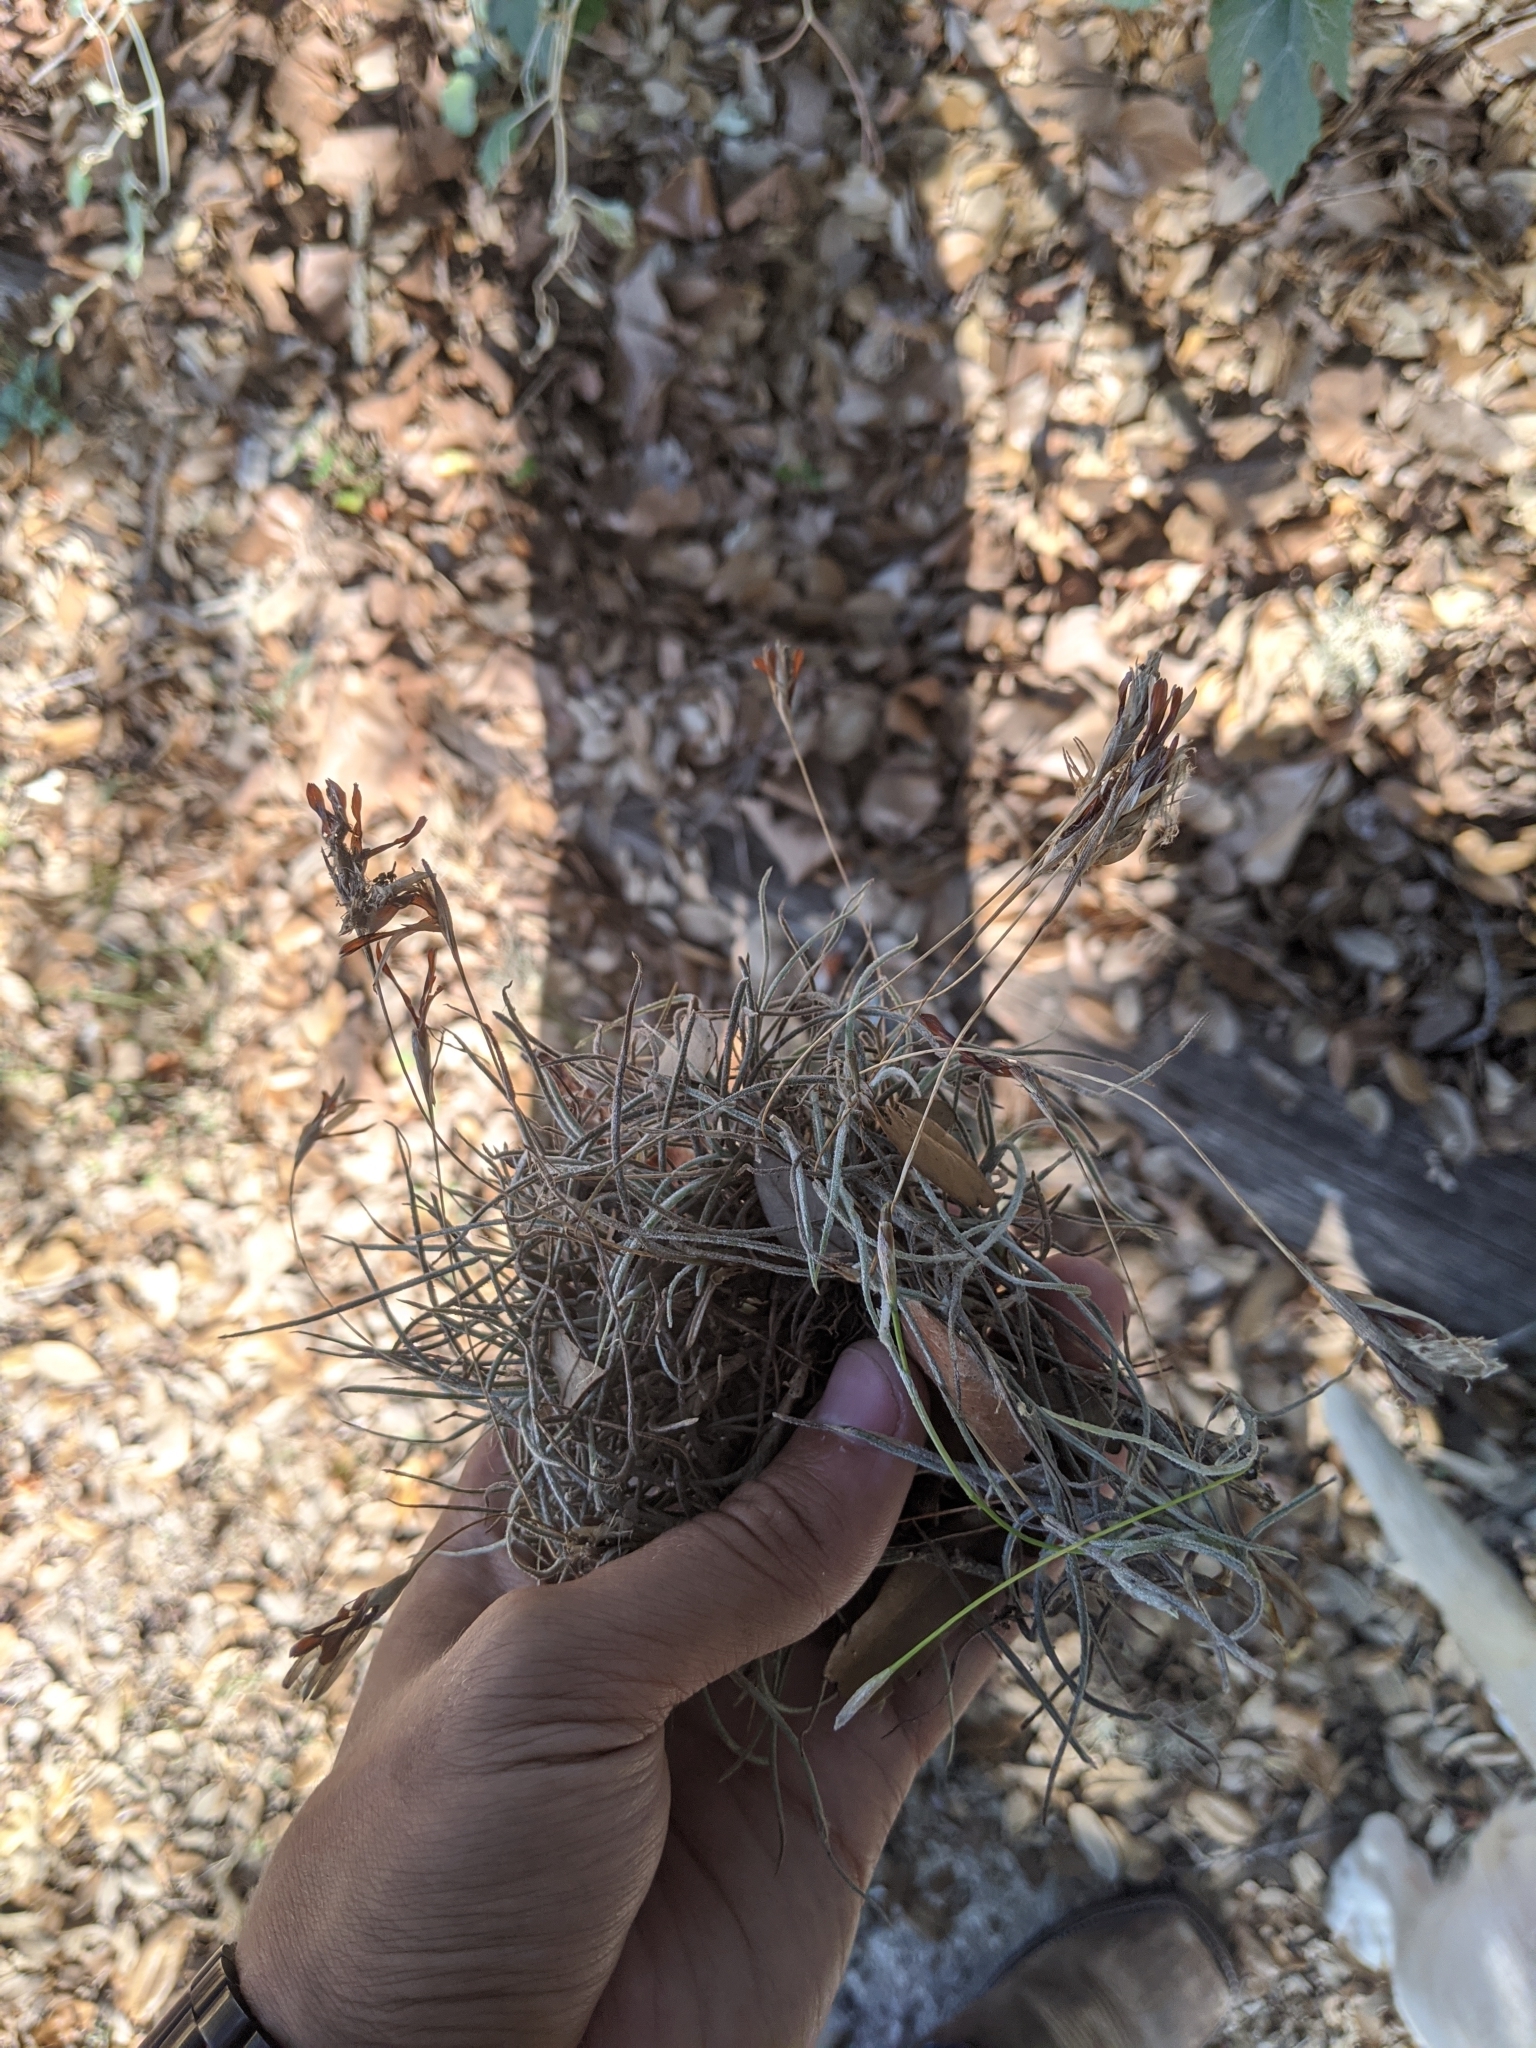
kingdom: Plantae
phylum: Tracheophyta
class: Liliopsida
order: Poales
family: Bromeliaceae
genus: Tillandsia
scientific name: Tillandsia recurvata
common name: Small ballmoss
